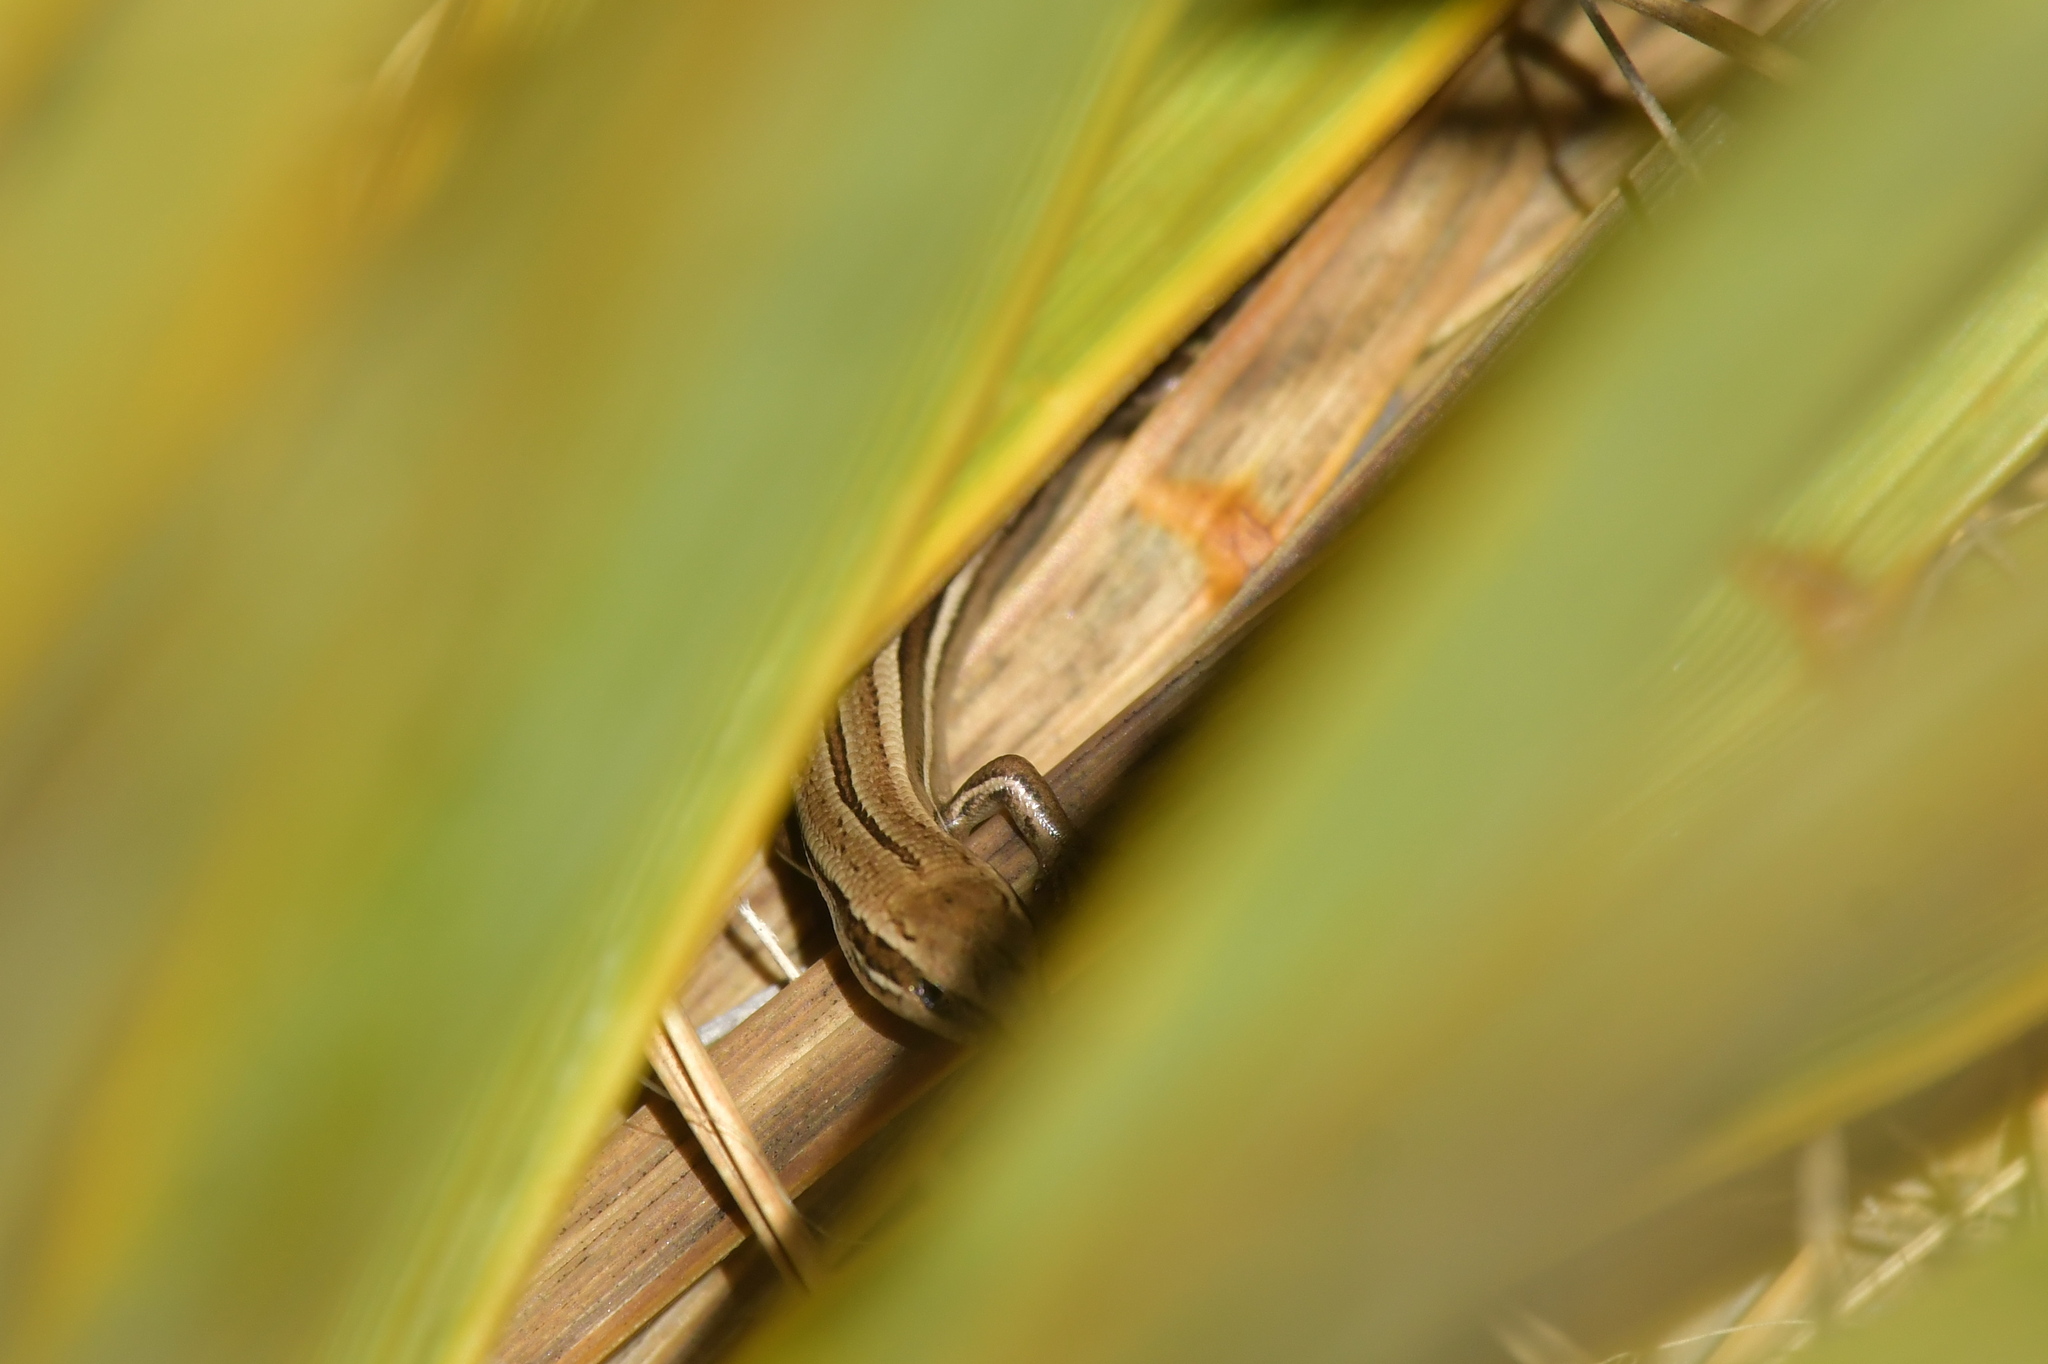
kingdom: Animalia
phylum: Chordata
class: Squamata
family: Scincidae
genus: Oligosoma
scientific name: Oligosoma polychroma
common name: Common new zealand skink
